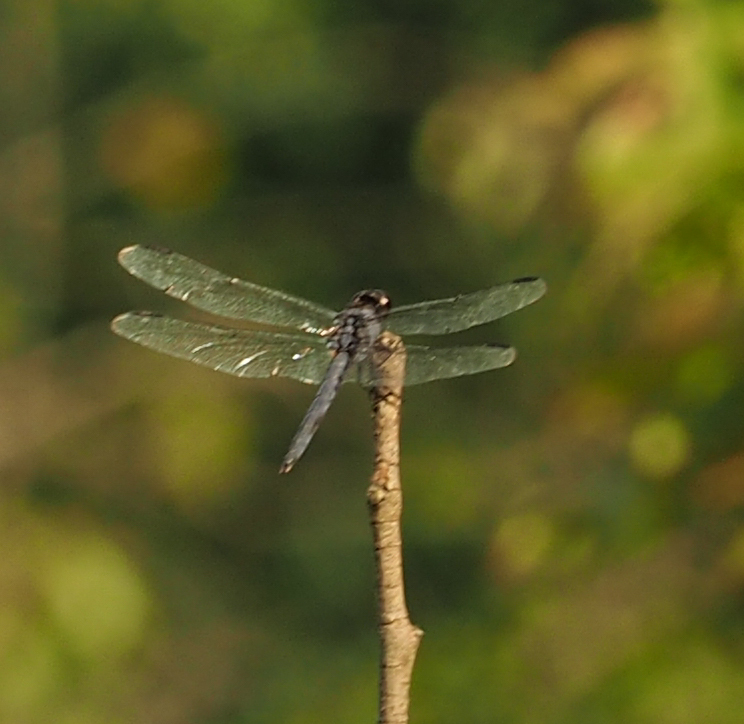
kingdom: Animalia
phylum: Arthropoda
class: Insecta
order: Odonata
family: Libellulidae
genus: Libellula
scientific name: Libellula incesta
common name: Slaty skimmer
